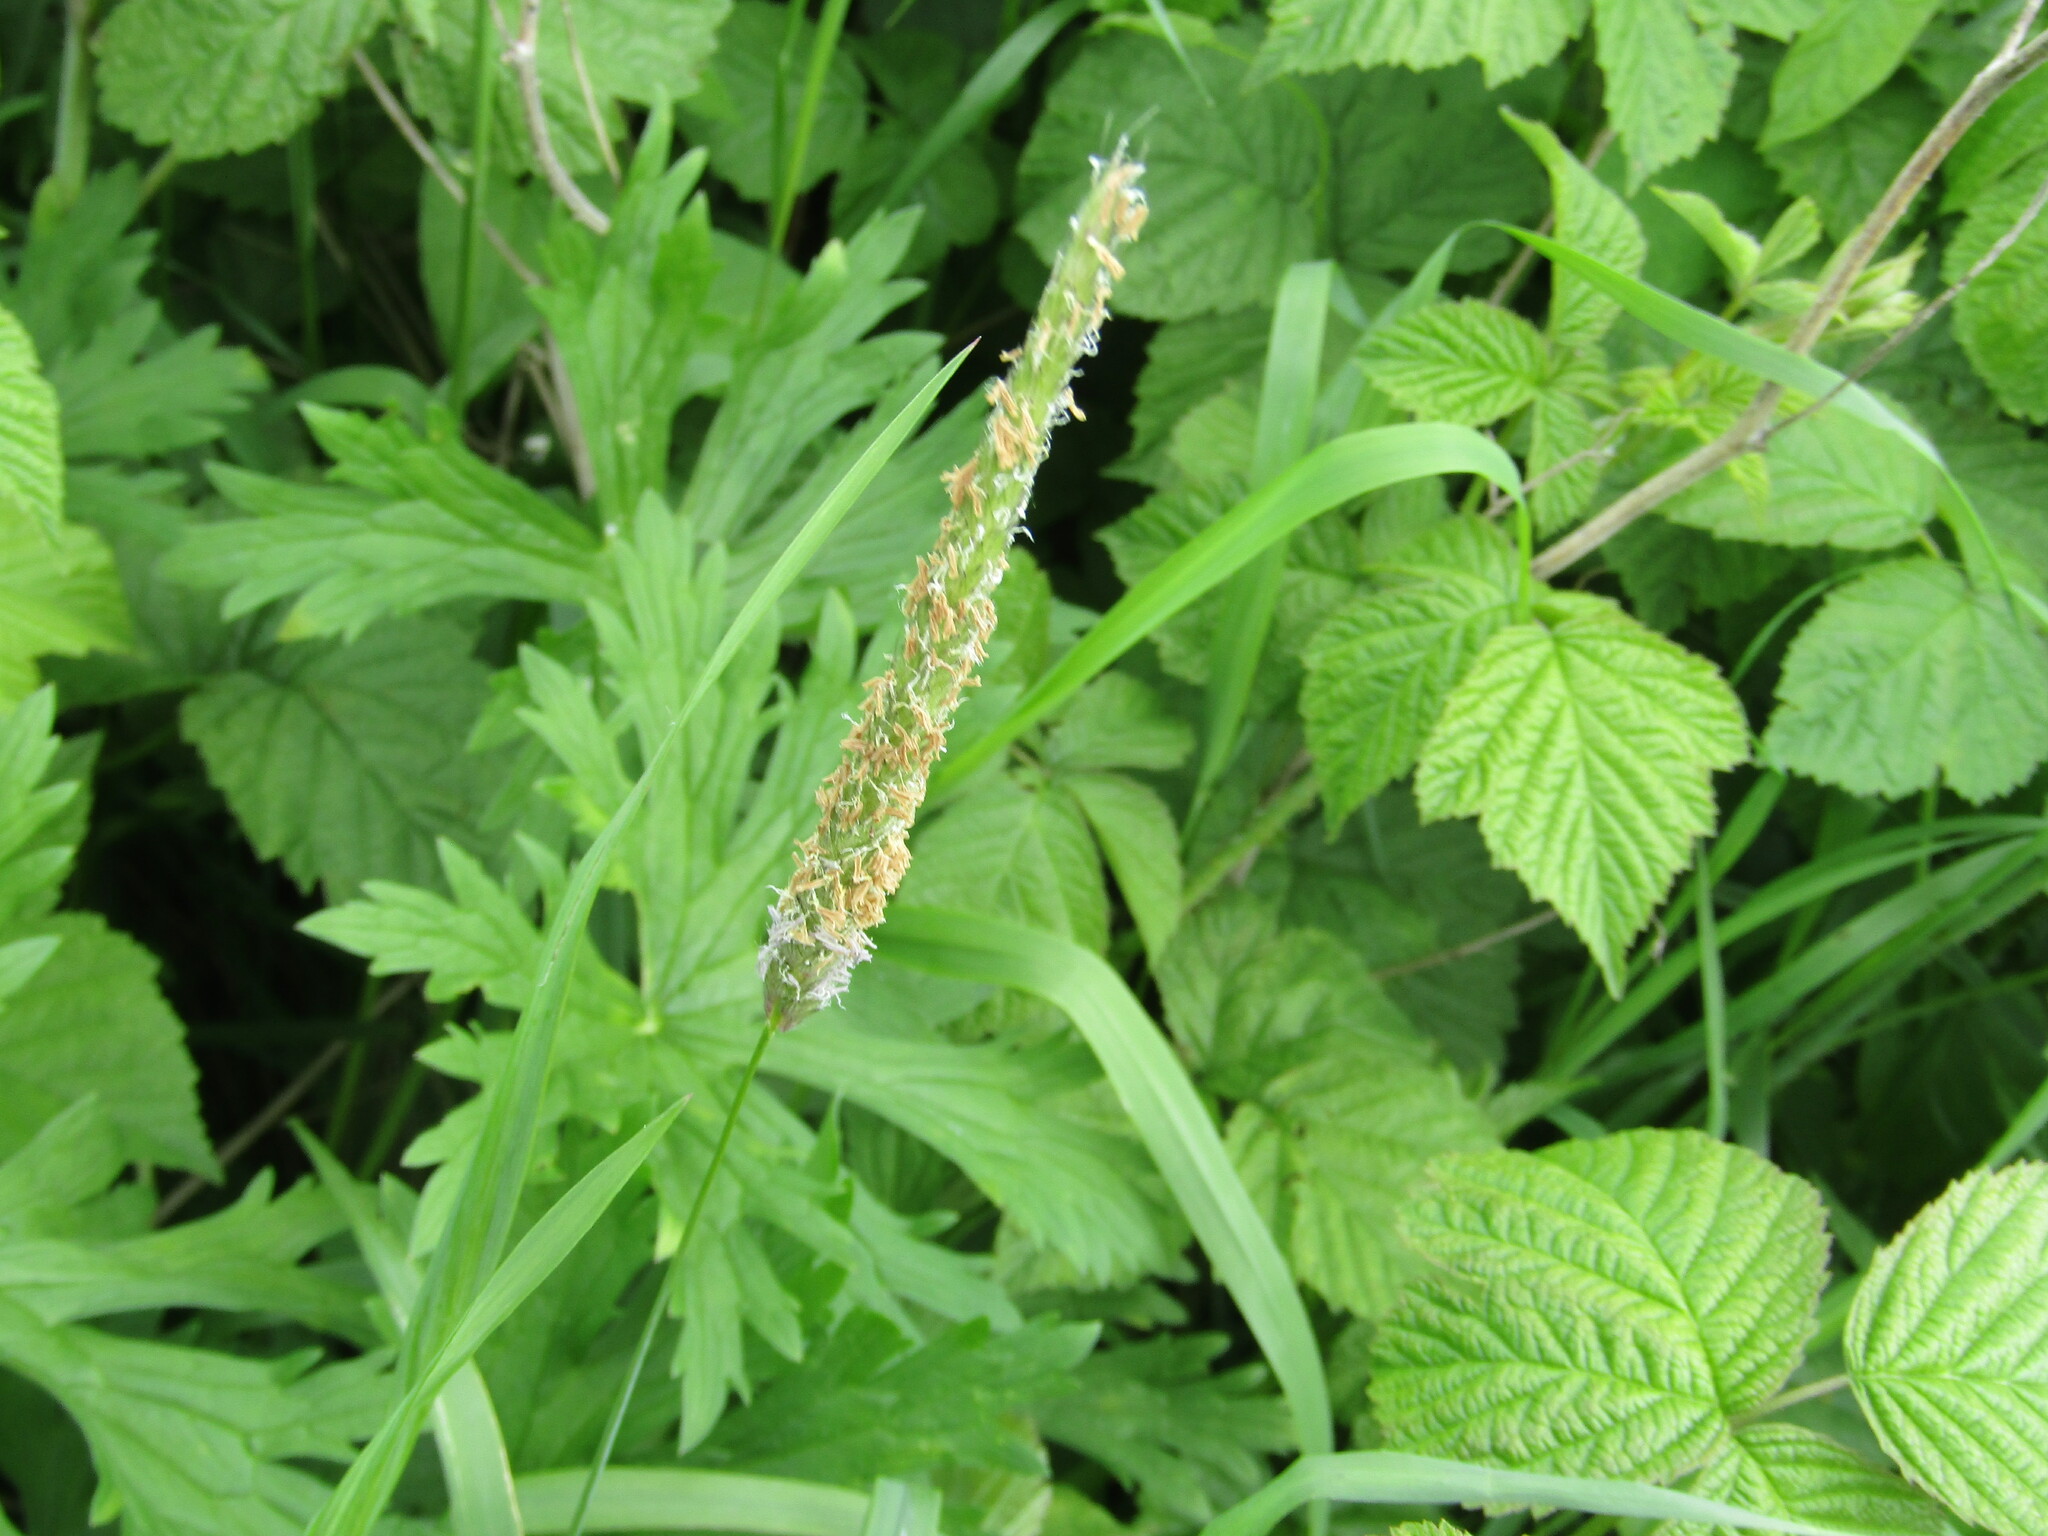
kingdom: Plantae
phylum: Tracheophyta
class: Liliopsida
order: Poales
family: Poaceae
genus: Alopecurus
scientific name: Alopecurus pratensis
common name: Meadow foxtail
